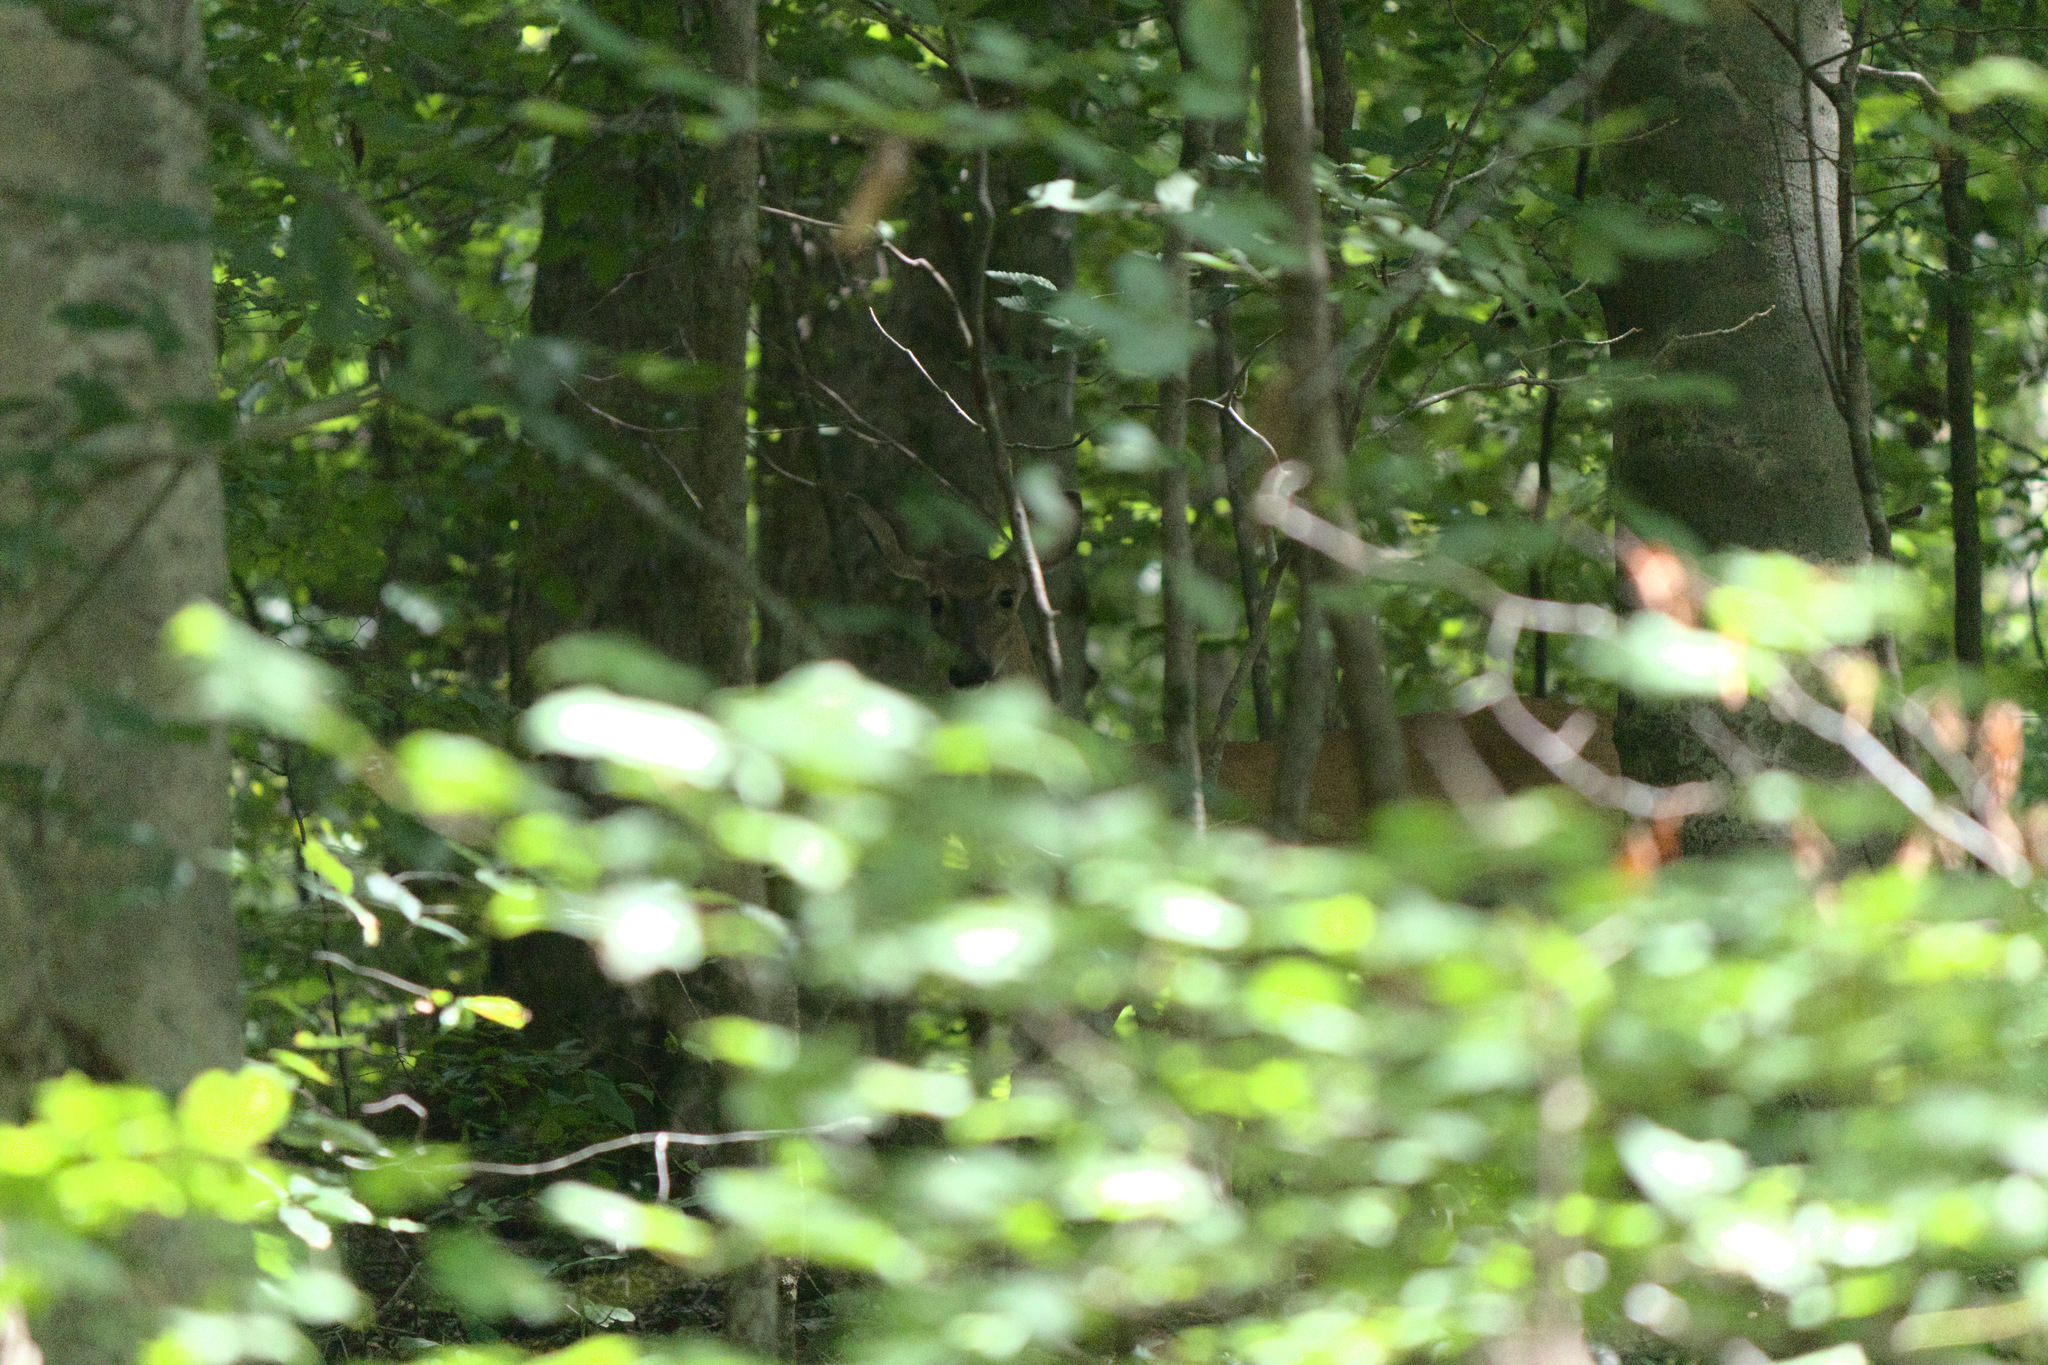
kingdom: Animalia
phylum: Chordata
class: Mammalia
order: Artiodactyla
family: Cervidae
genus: Odocoileus
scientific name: Odocoileus virginianus
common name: White-tailed deer
